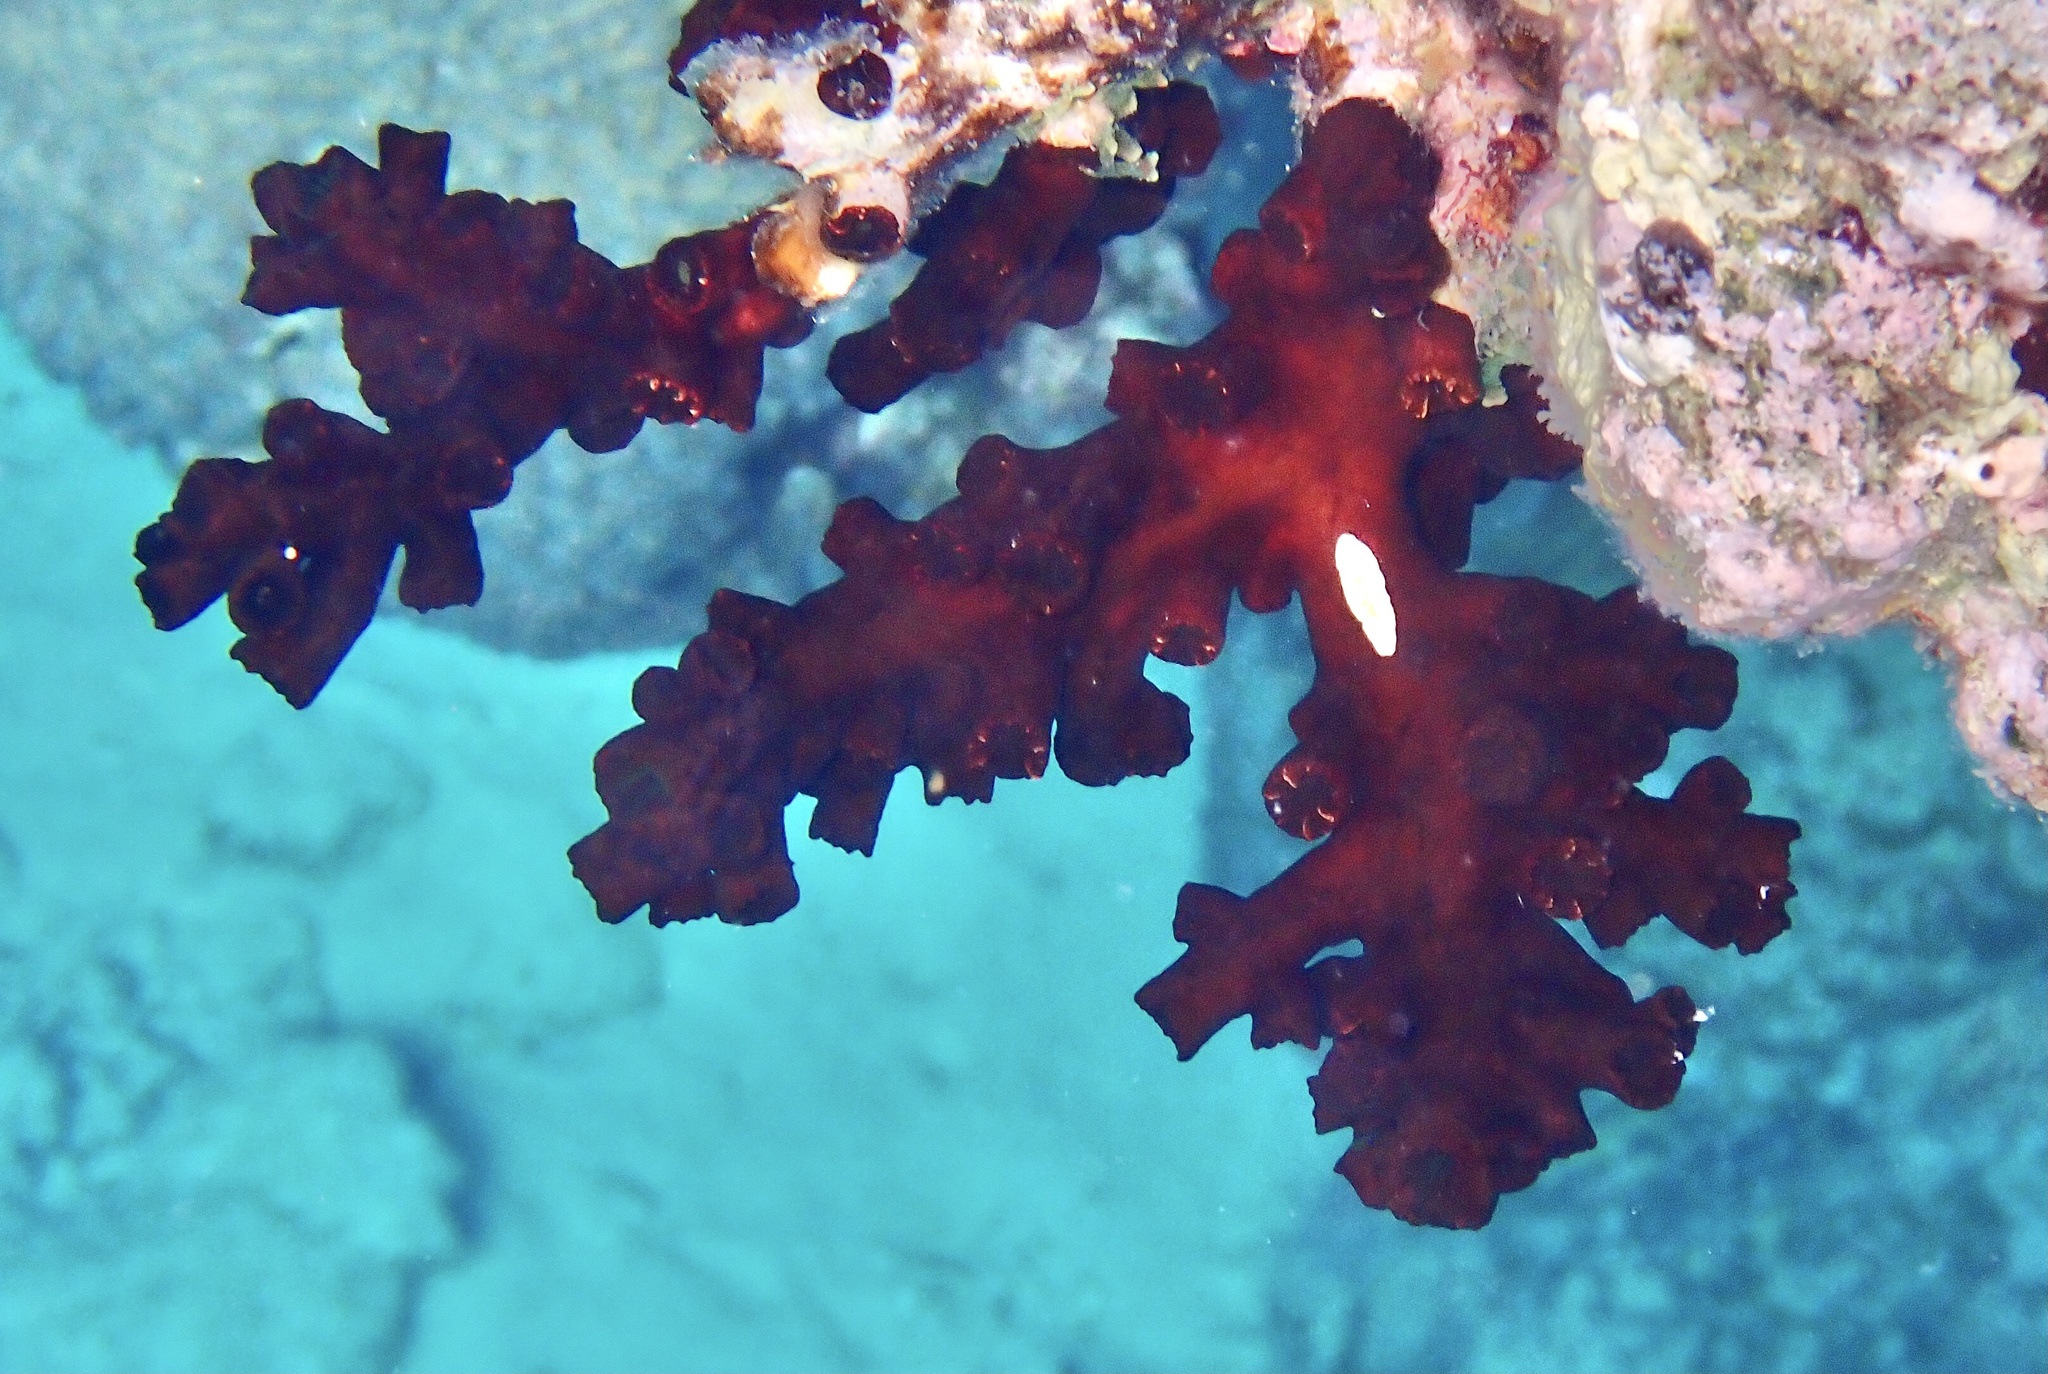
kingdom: Animalia
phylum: Cnidaria
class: Anthozoa
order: Scleractinia
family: Dendrophylliidae
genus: Tubastraea
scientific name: Tubastraea micranthus
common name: Black sun coral
